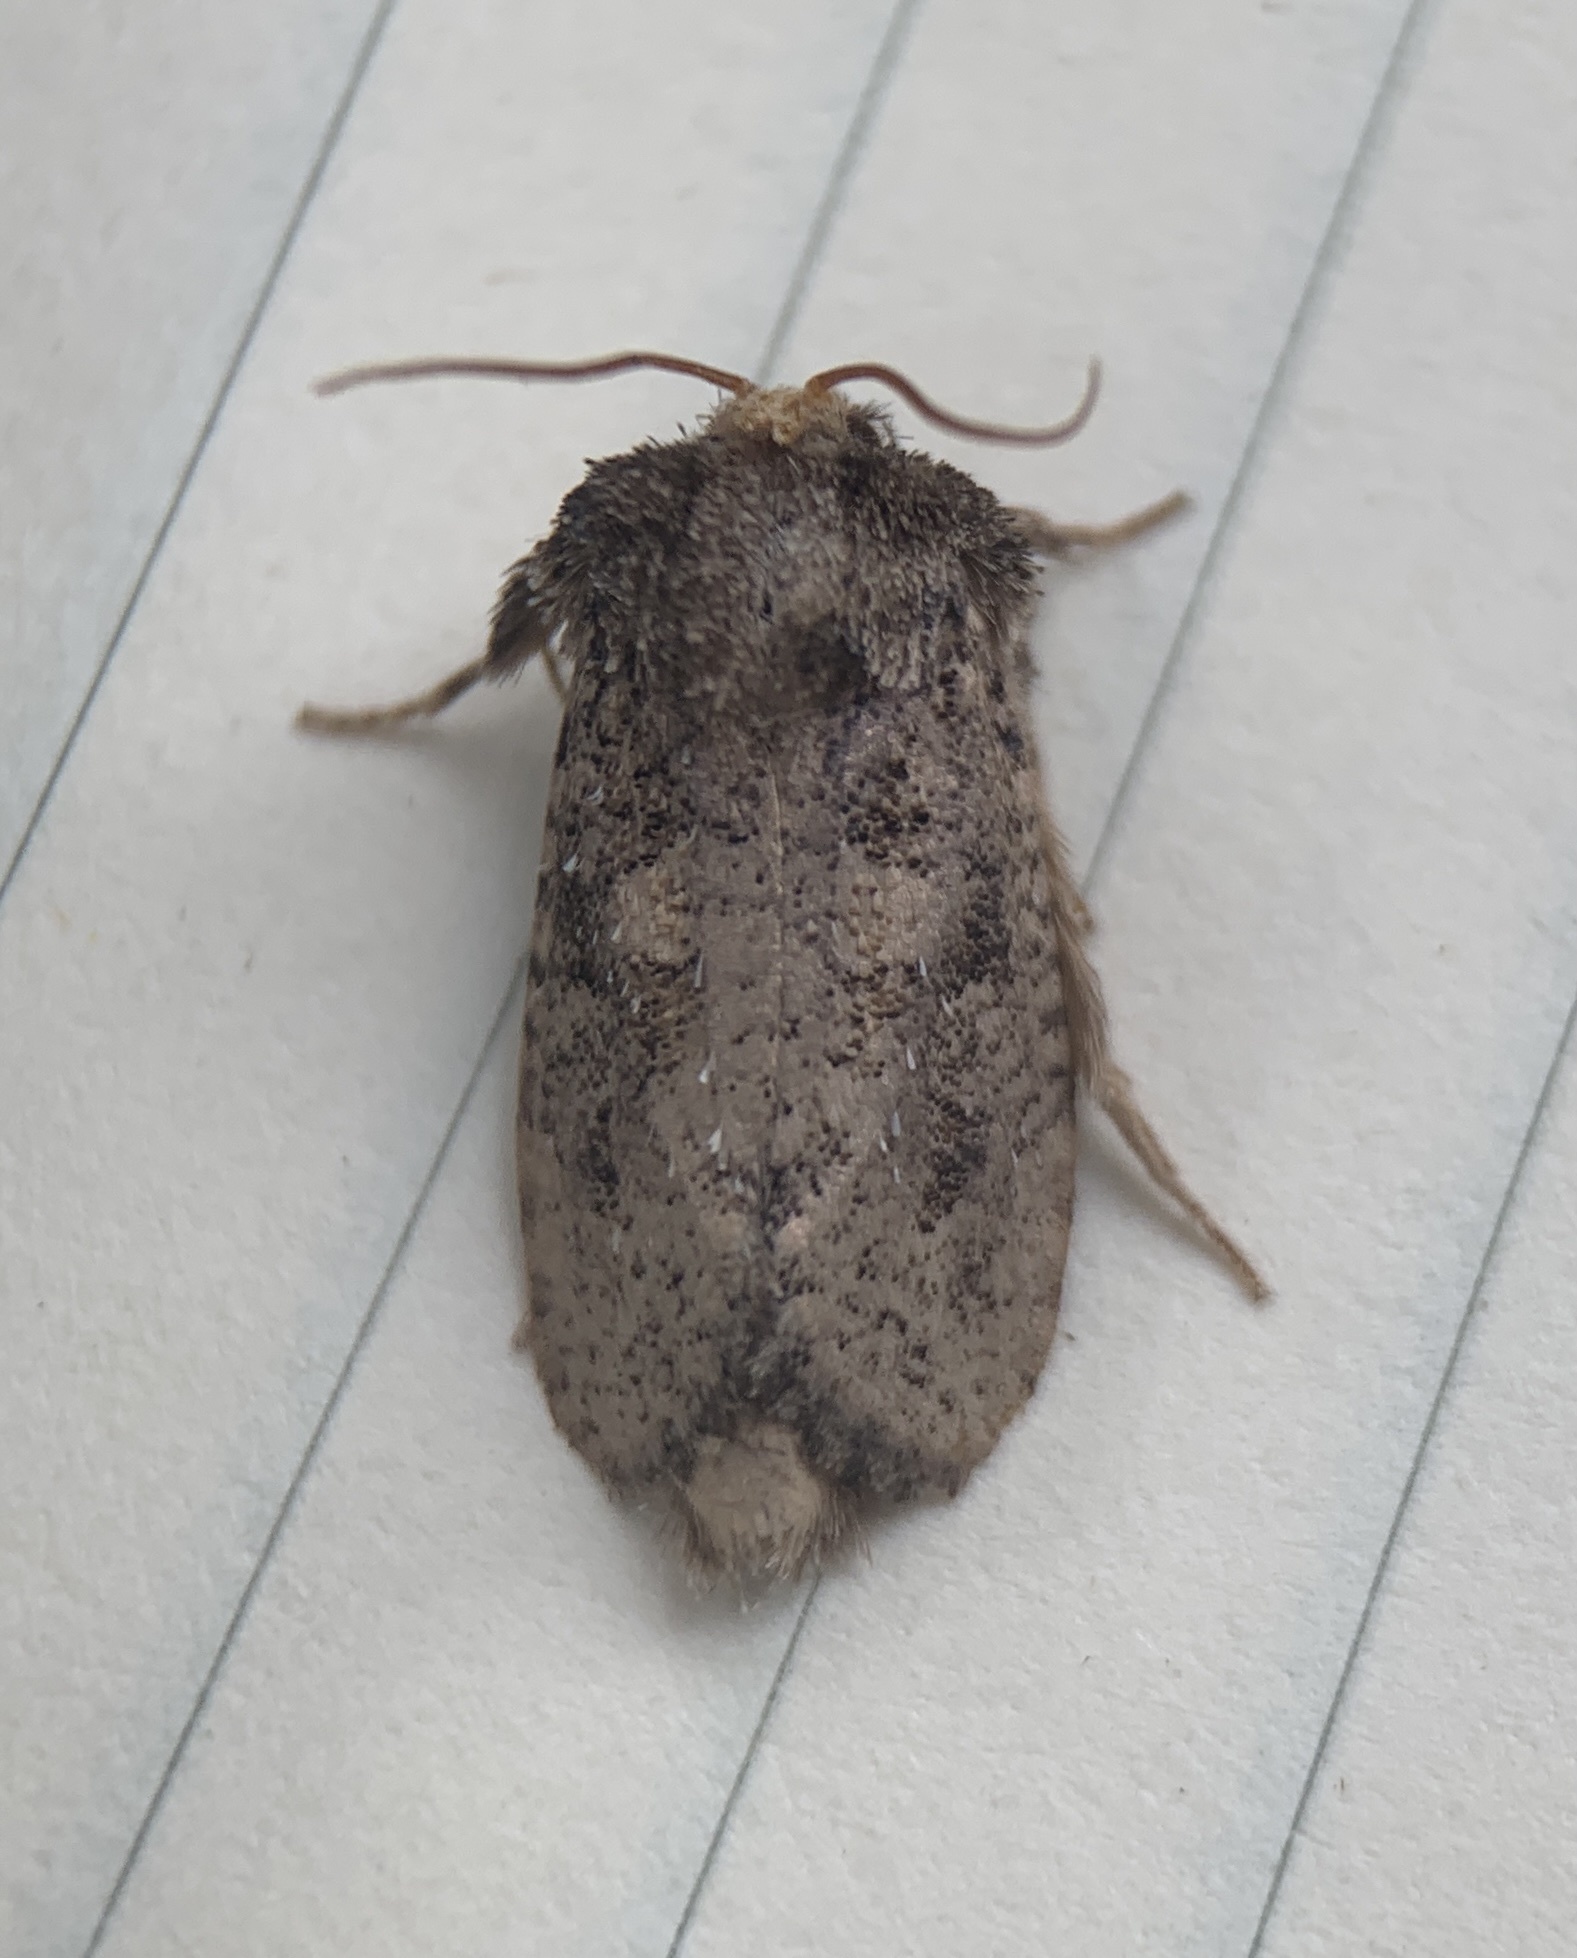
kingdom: Animalia
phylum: Arthropoda
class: Insecta
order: Lepidoptera
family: Tineidae
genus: Acrolophus
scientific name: Acrolophus arcanella
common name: Arcane grass tubeworm moth
